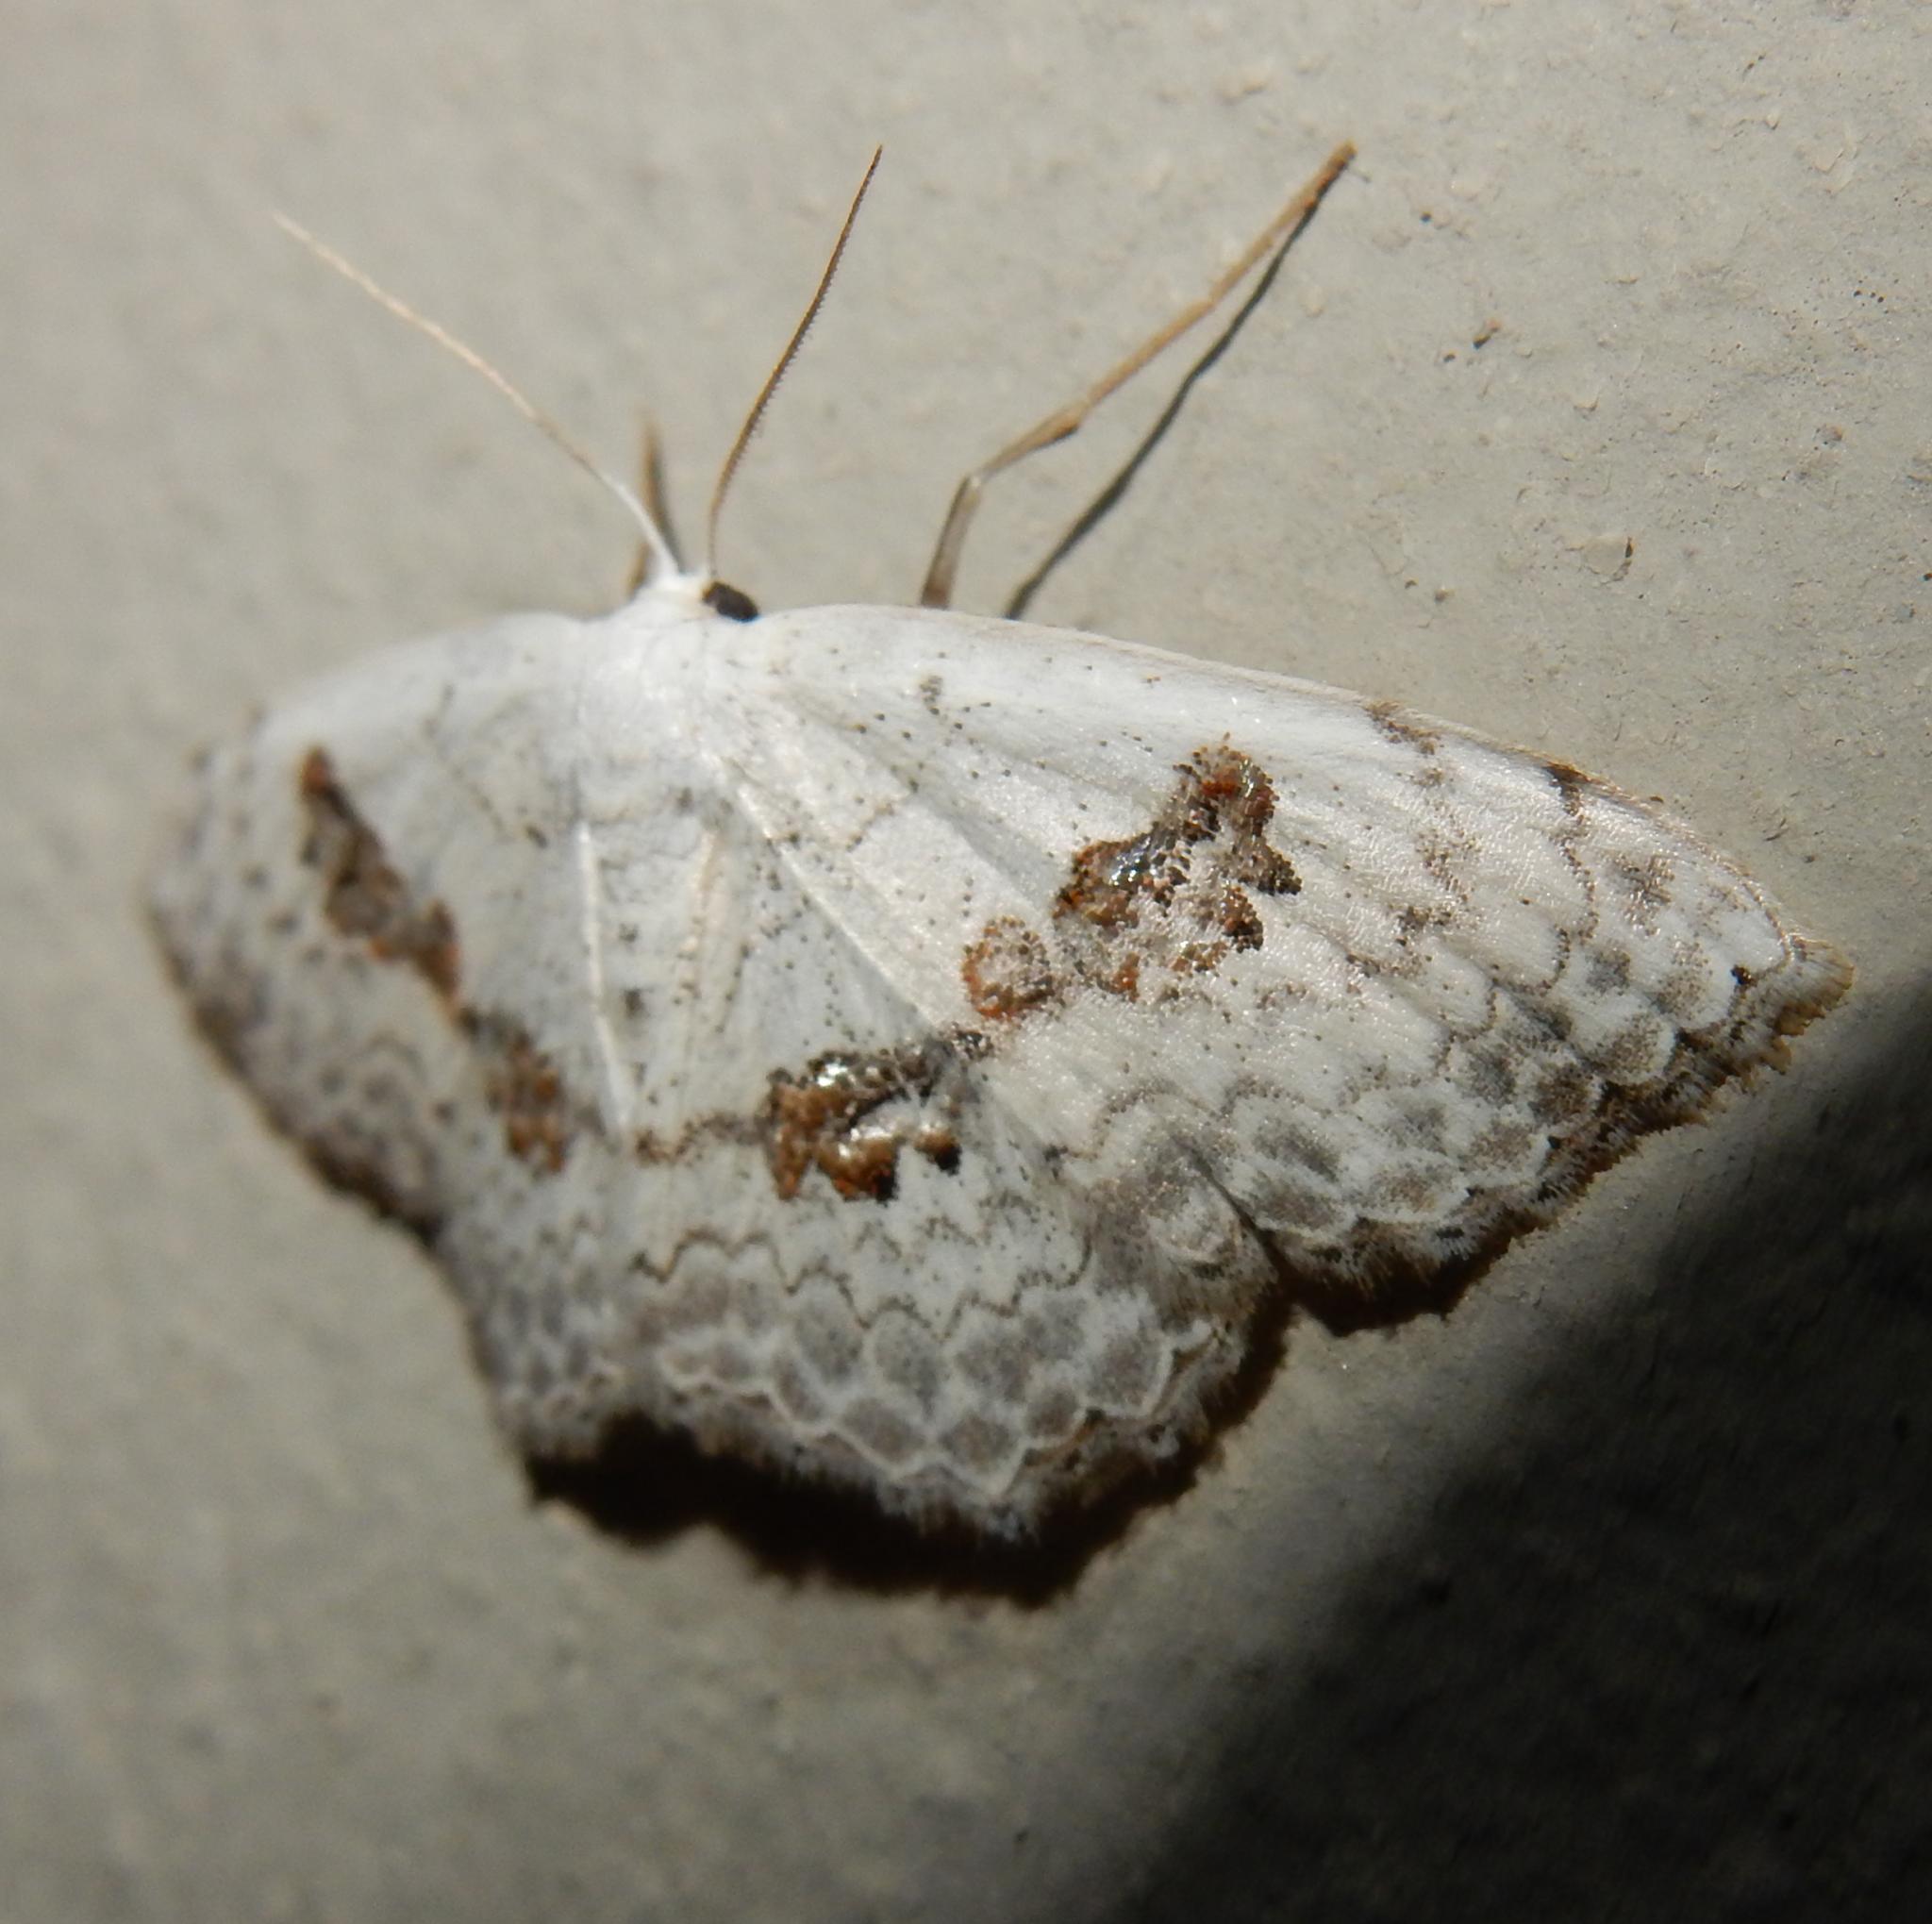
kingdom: Animalia
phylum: Arthropoda
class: Insecta
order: Lepidoptera
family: Geometridae
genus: Problepsis
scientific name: Problepsis
